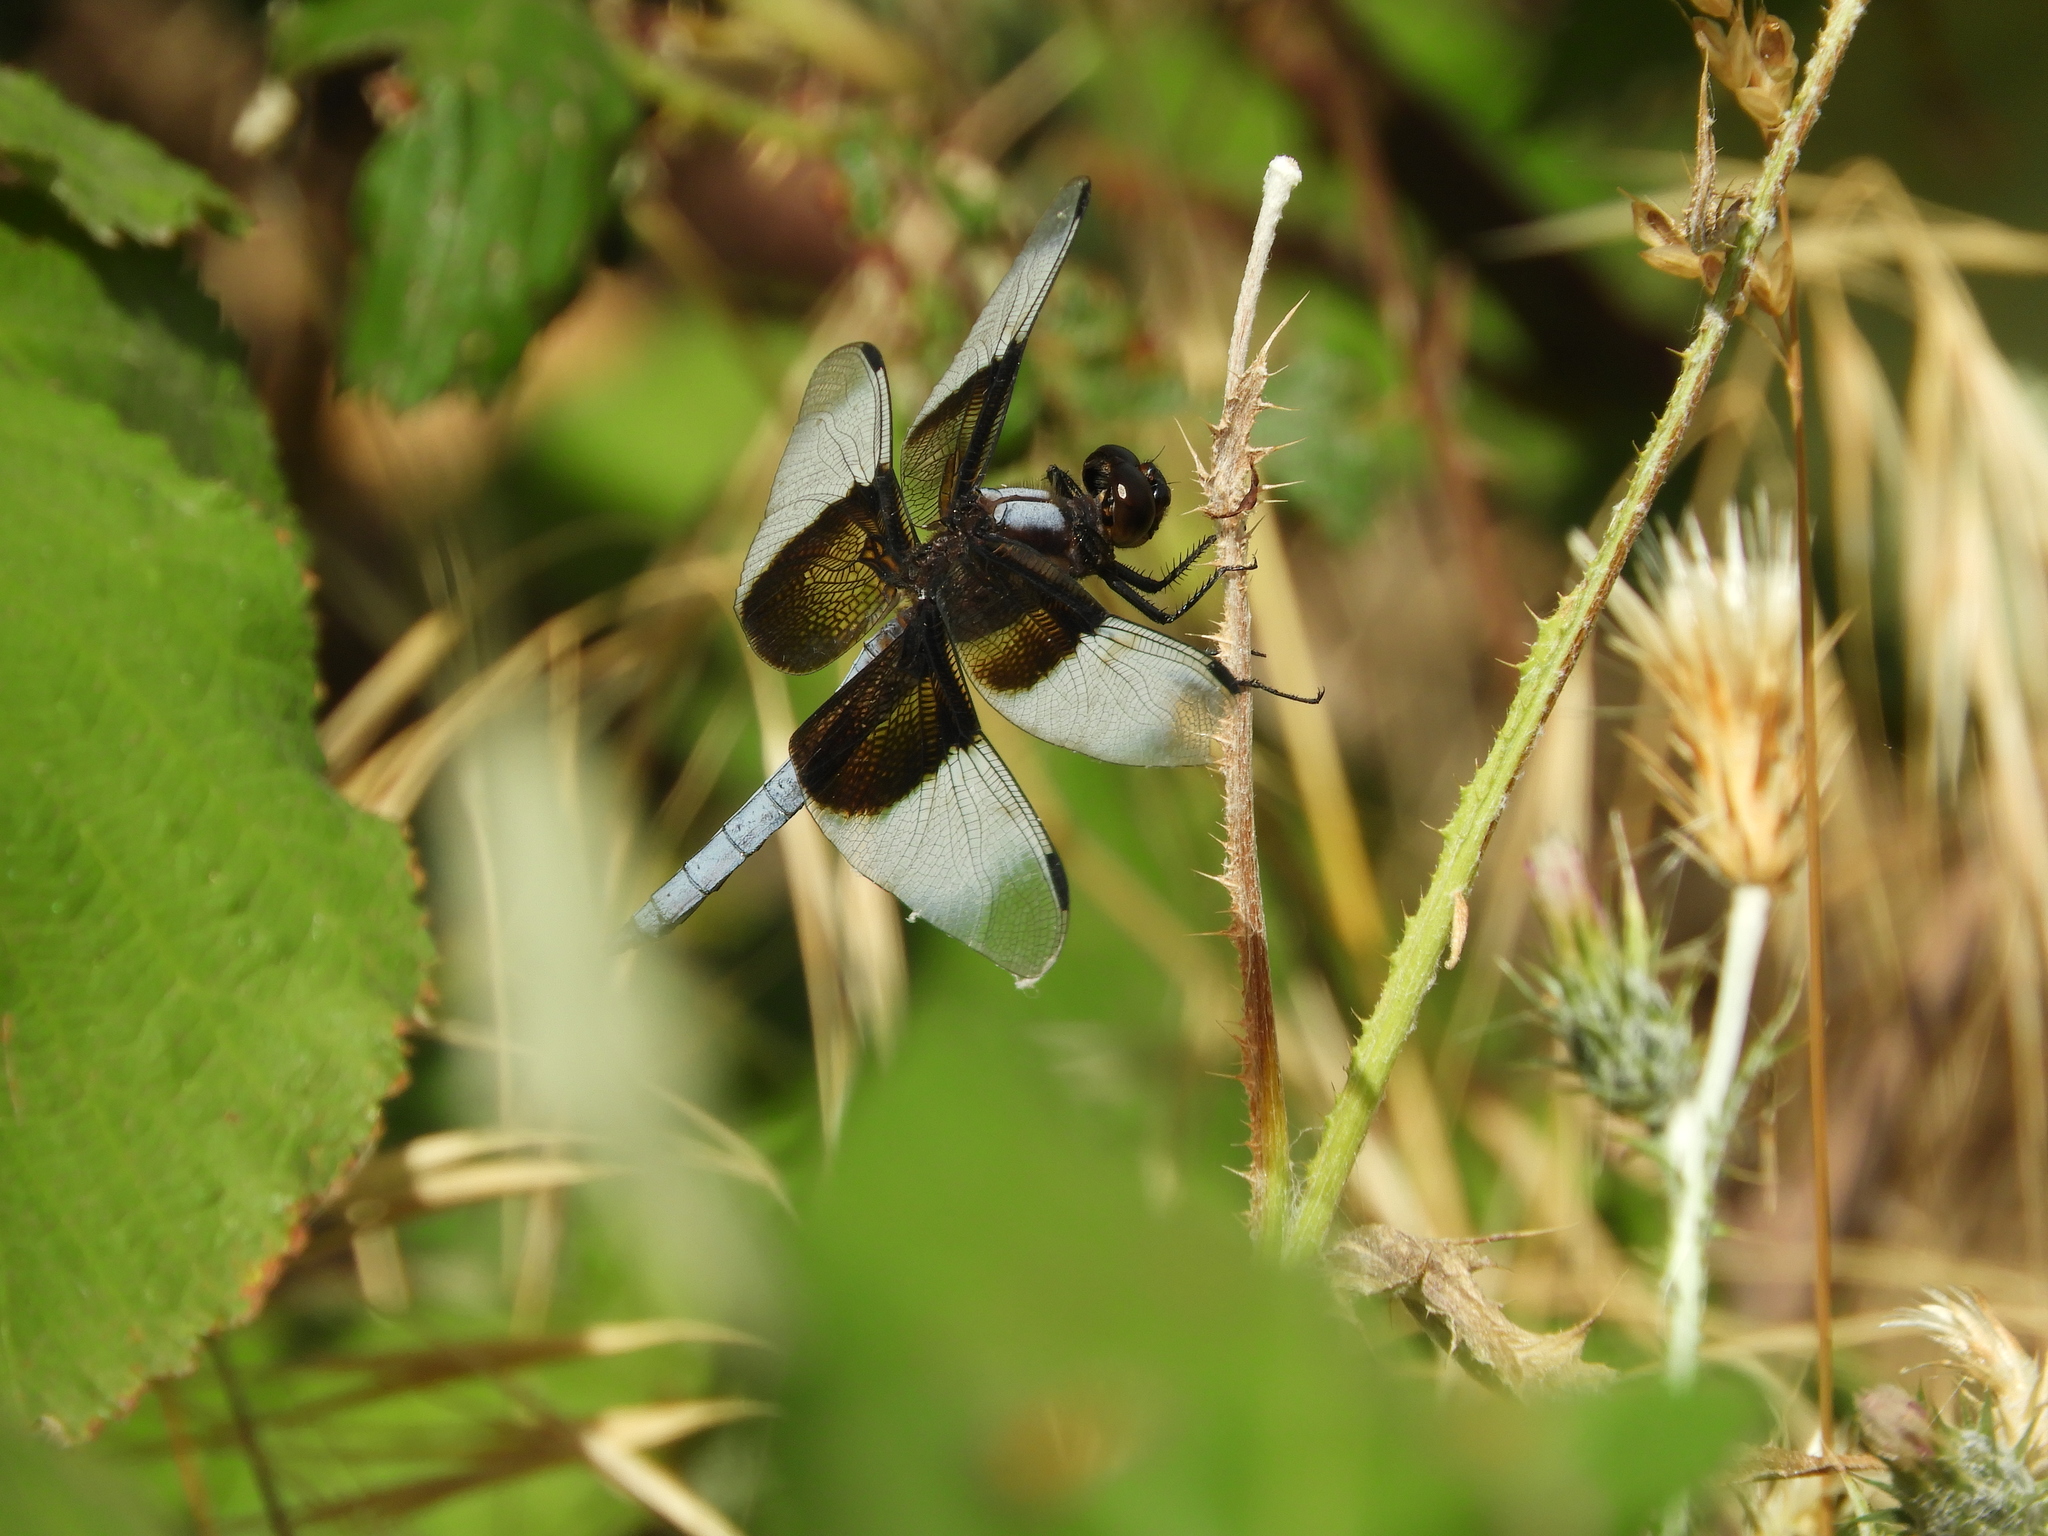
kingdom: Animalia
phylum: Arthropoda
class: Insecta
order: Odonata
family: Libellulidae
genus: Libellula
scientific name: Libellula luctuosa
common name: Widow skimmer
